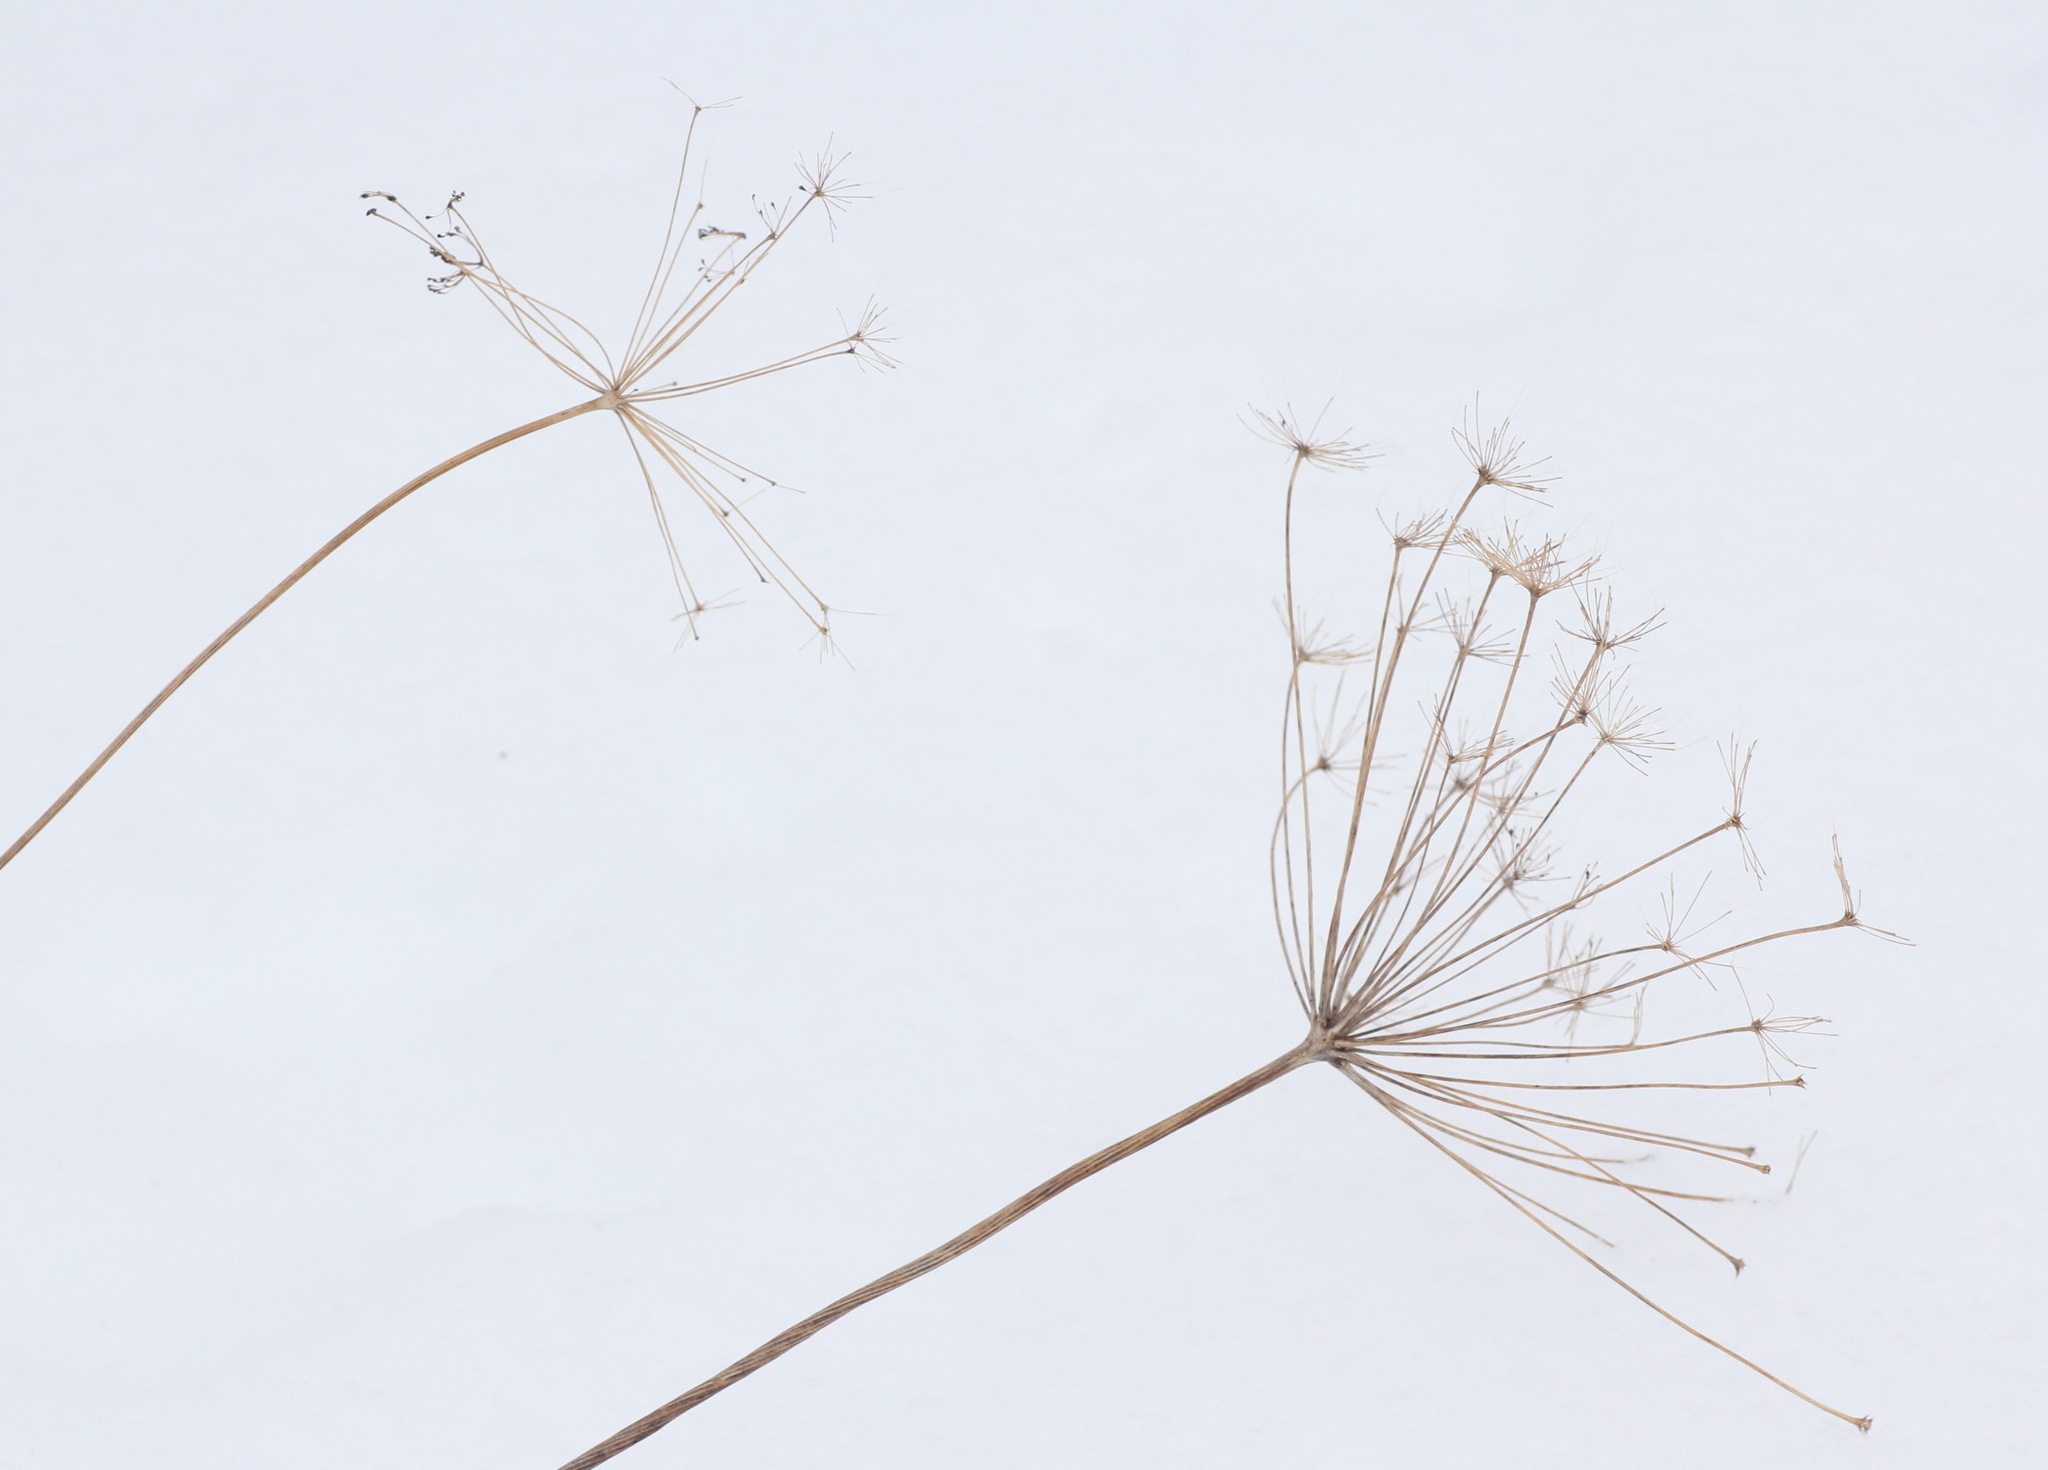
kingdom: Plantae
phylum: Tracheophyta
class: Magnoliopsida
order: Apiales
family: Apiaceae
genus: Peucedanum
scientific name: Peucedanum morisonii
